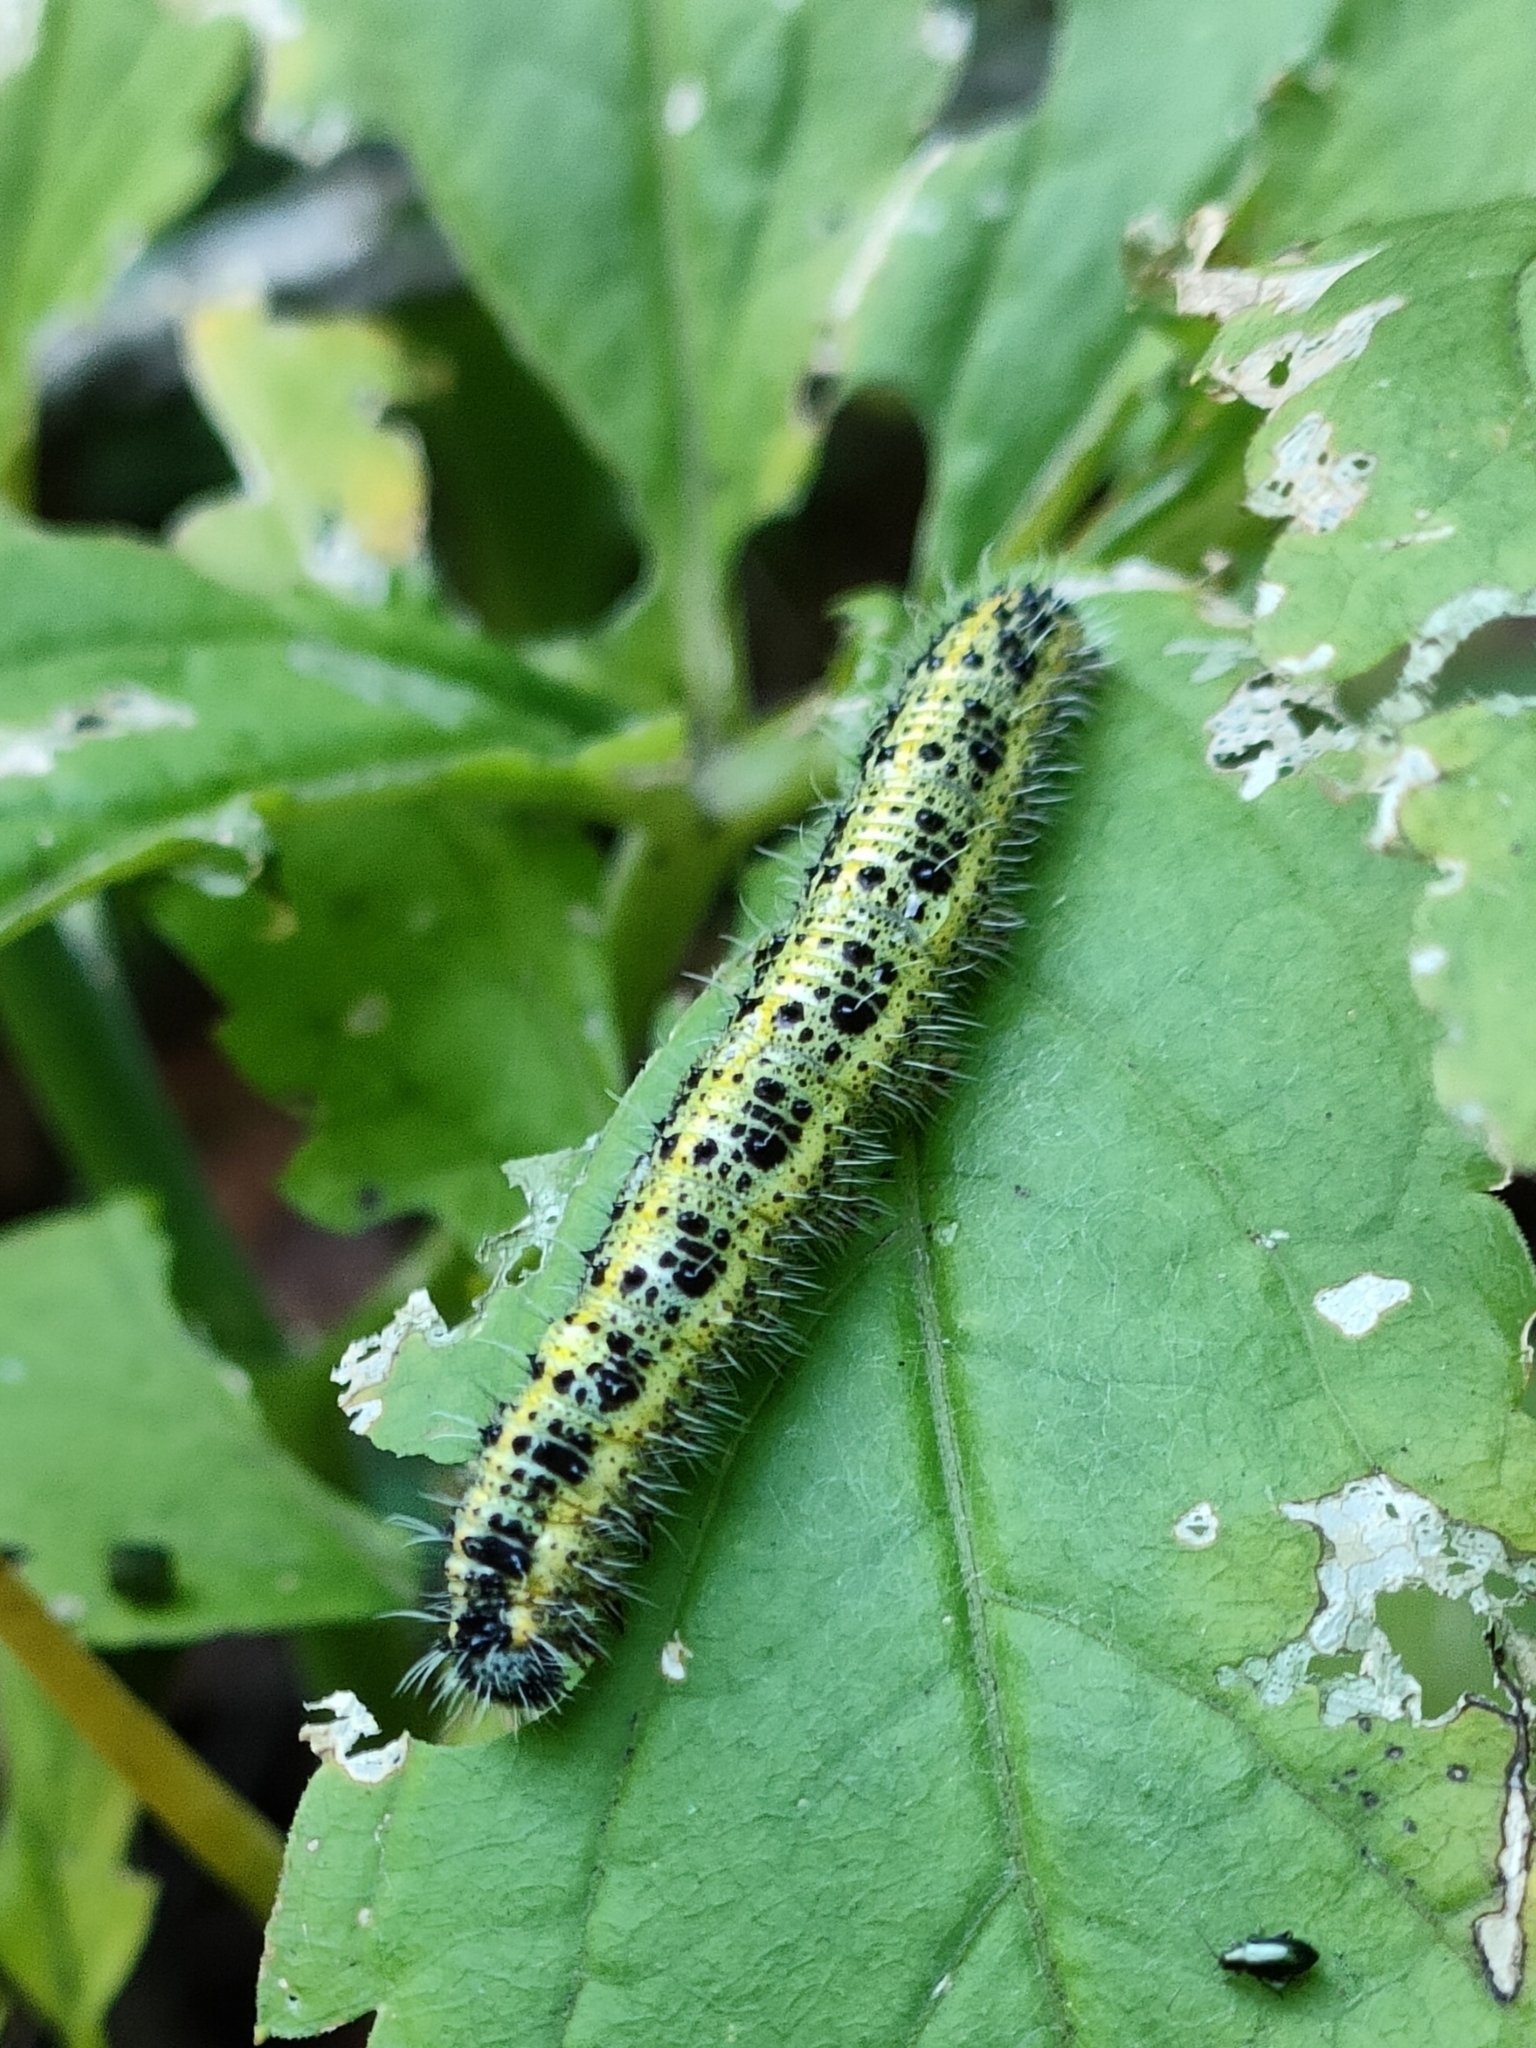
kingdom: Animalia
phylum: Arthropoda
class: Insecta
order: Lepidoptera
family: Pieridae
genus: Pieris
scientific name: Pieris brassicae
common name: Large white
